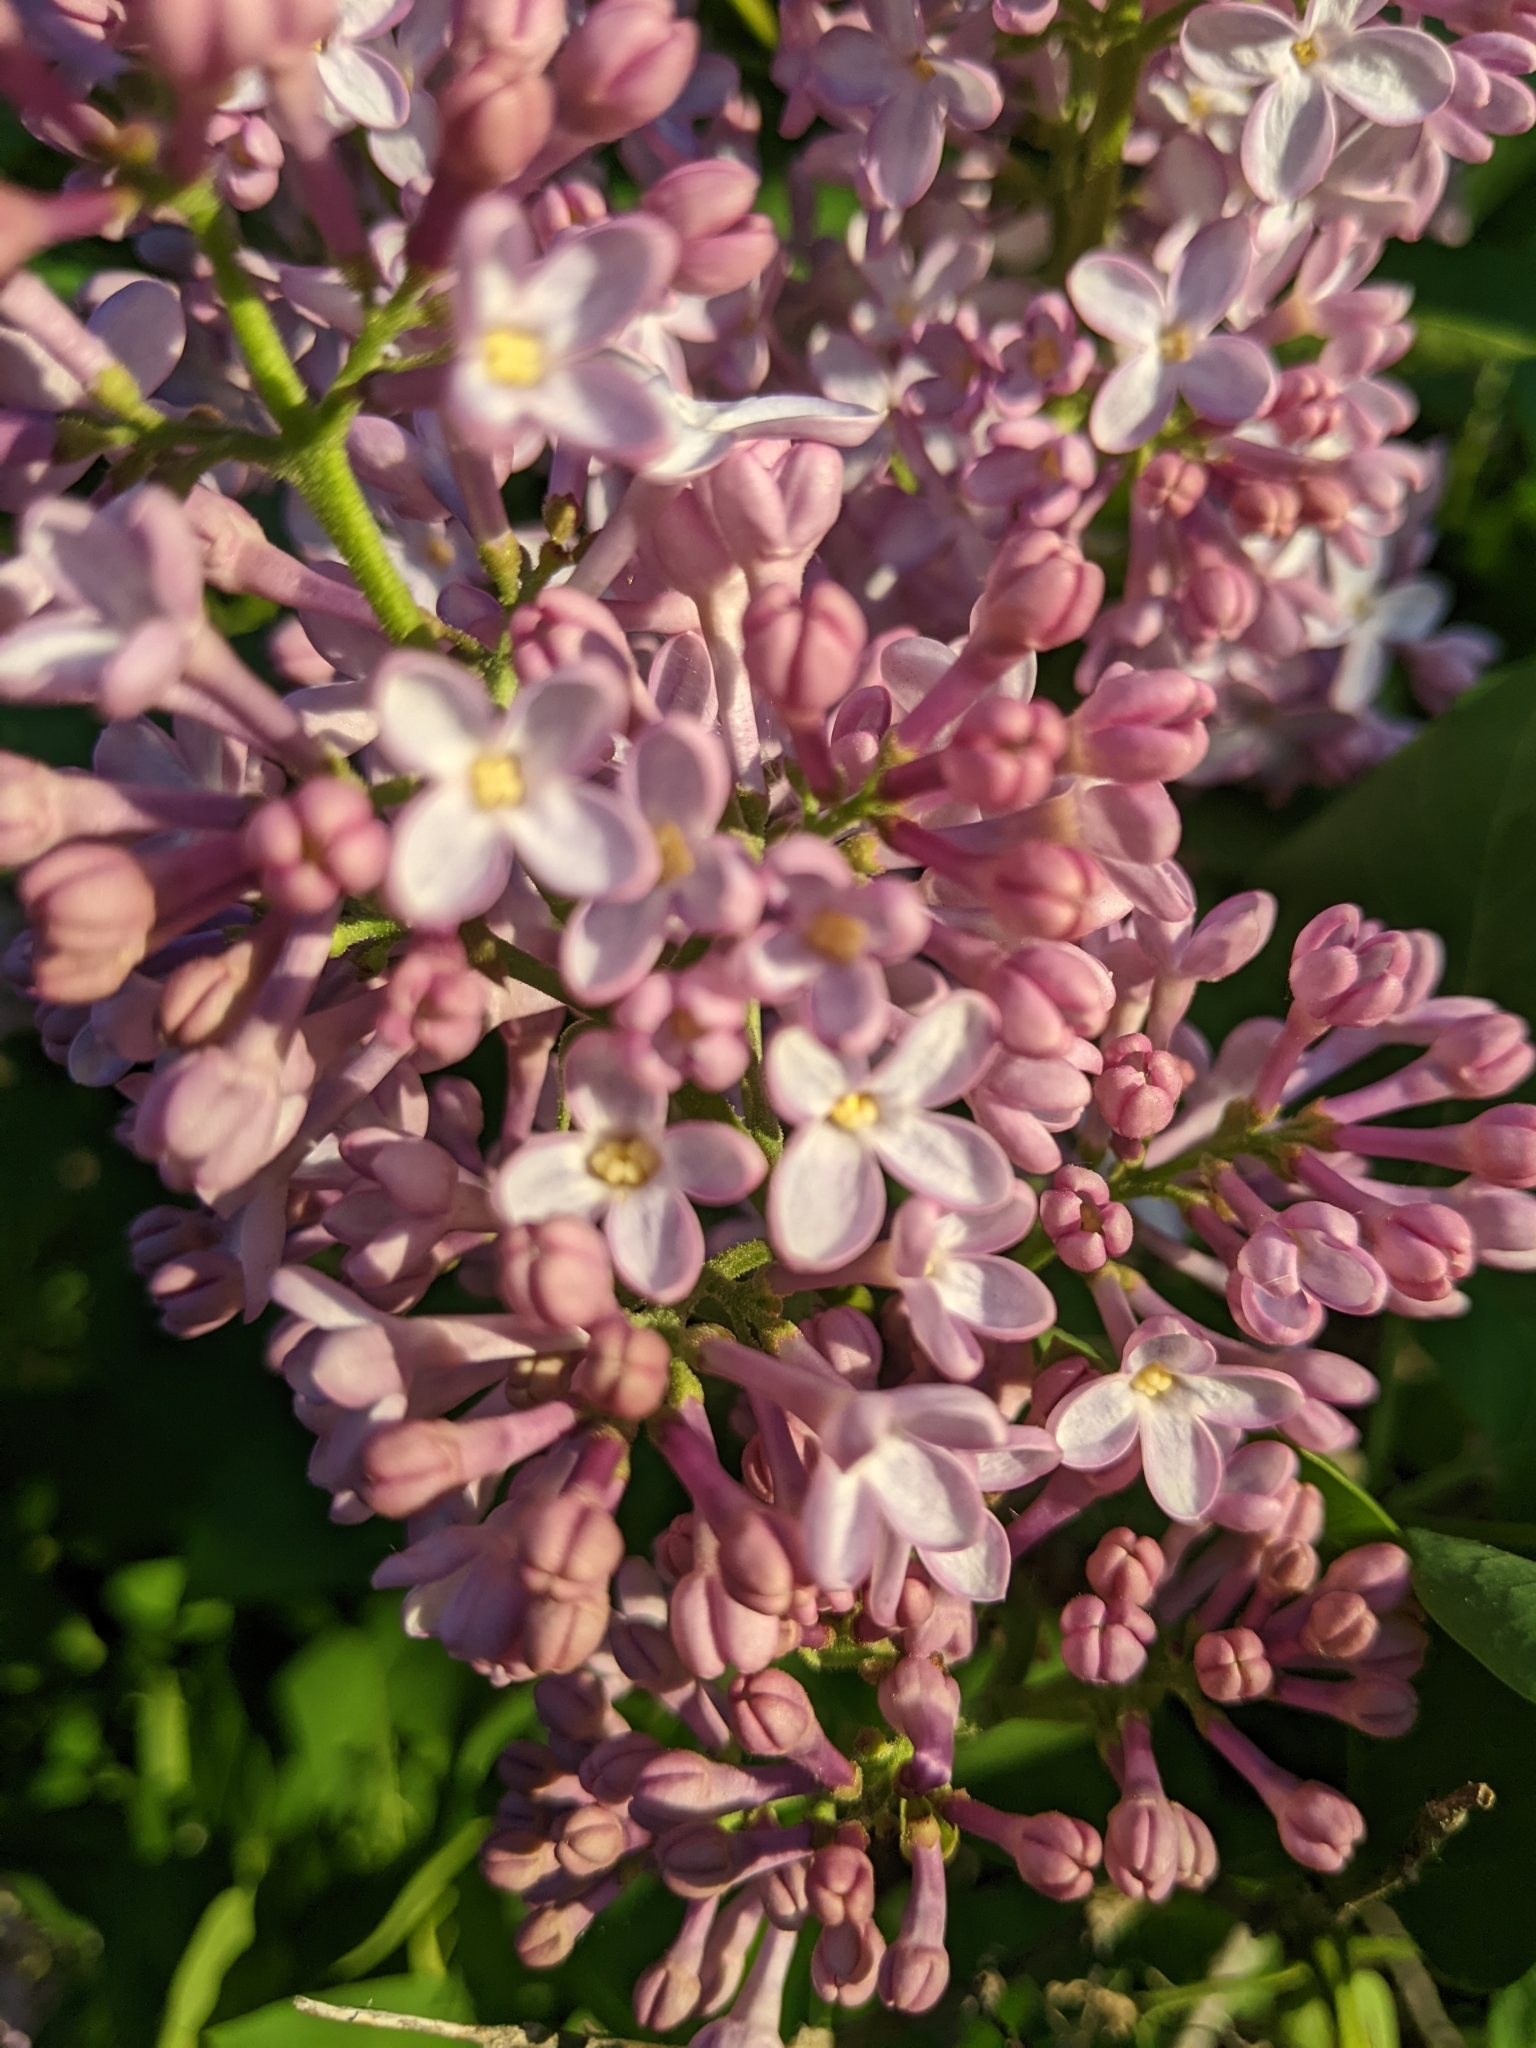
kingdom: Plantae
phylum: Tracheophyta
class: Magnoliopsida
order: Lamiales
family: Oleaceae
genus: Syringa
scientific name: Syringa vulgaris
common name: Common lilac
